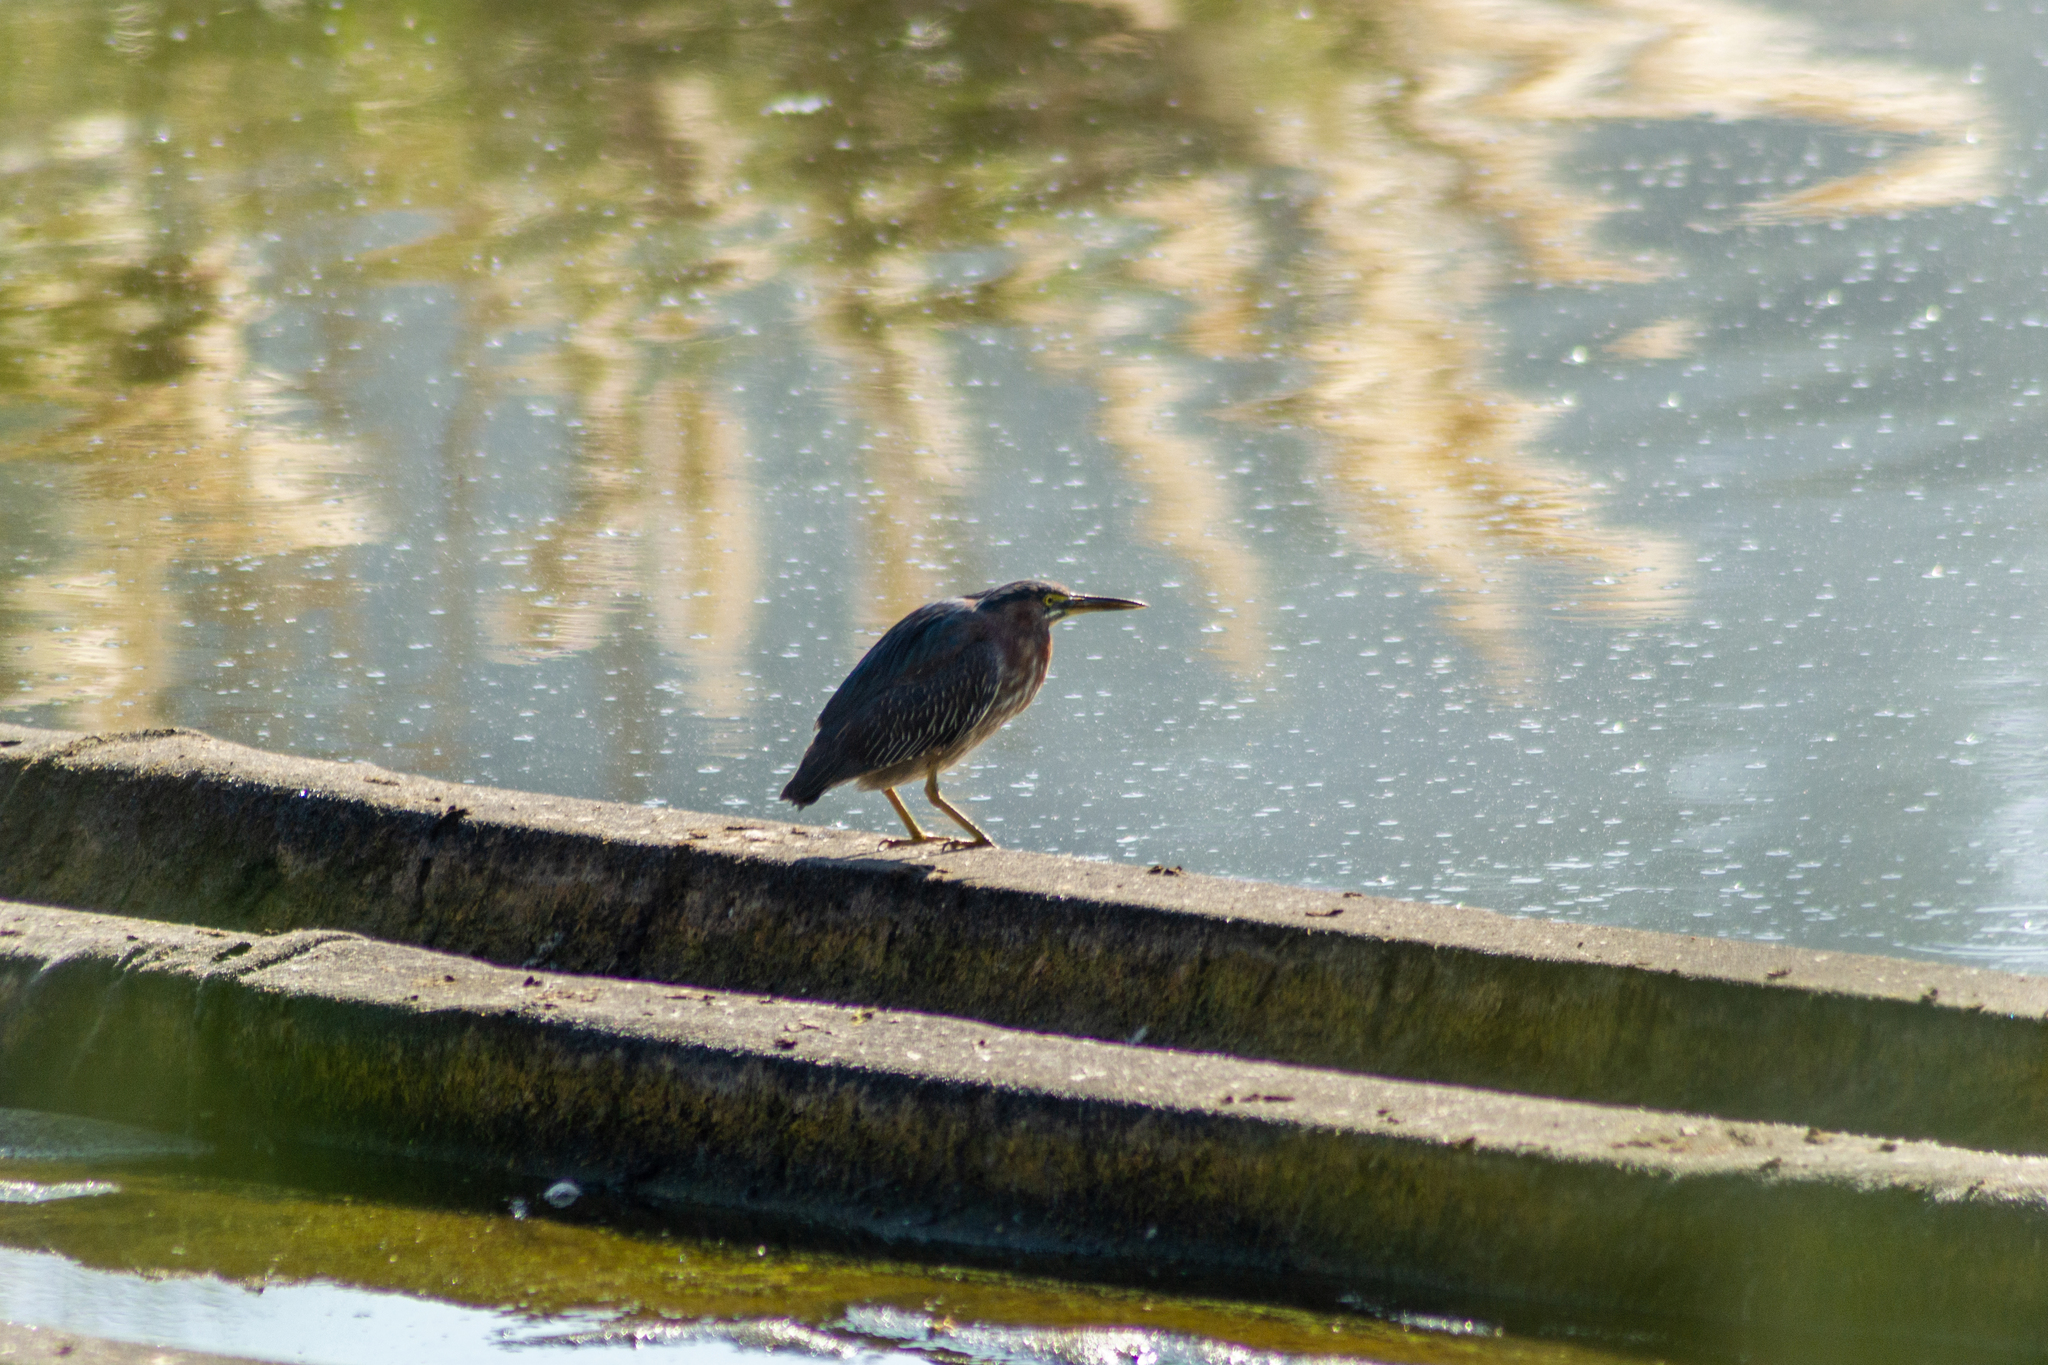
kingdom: Animalia
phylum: Chordata
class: Aves
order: Pelecaniformes
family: Ardeidae
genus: Butorides
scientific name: Butorides virescens
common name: Green heron
